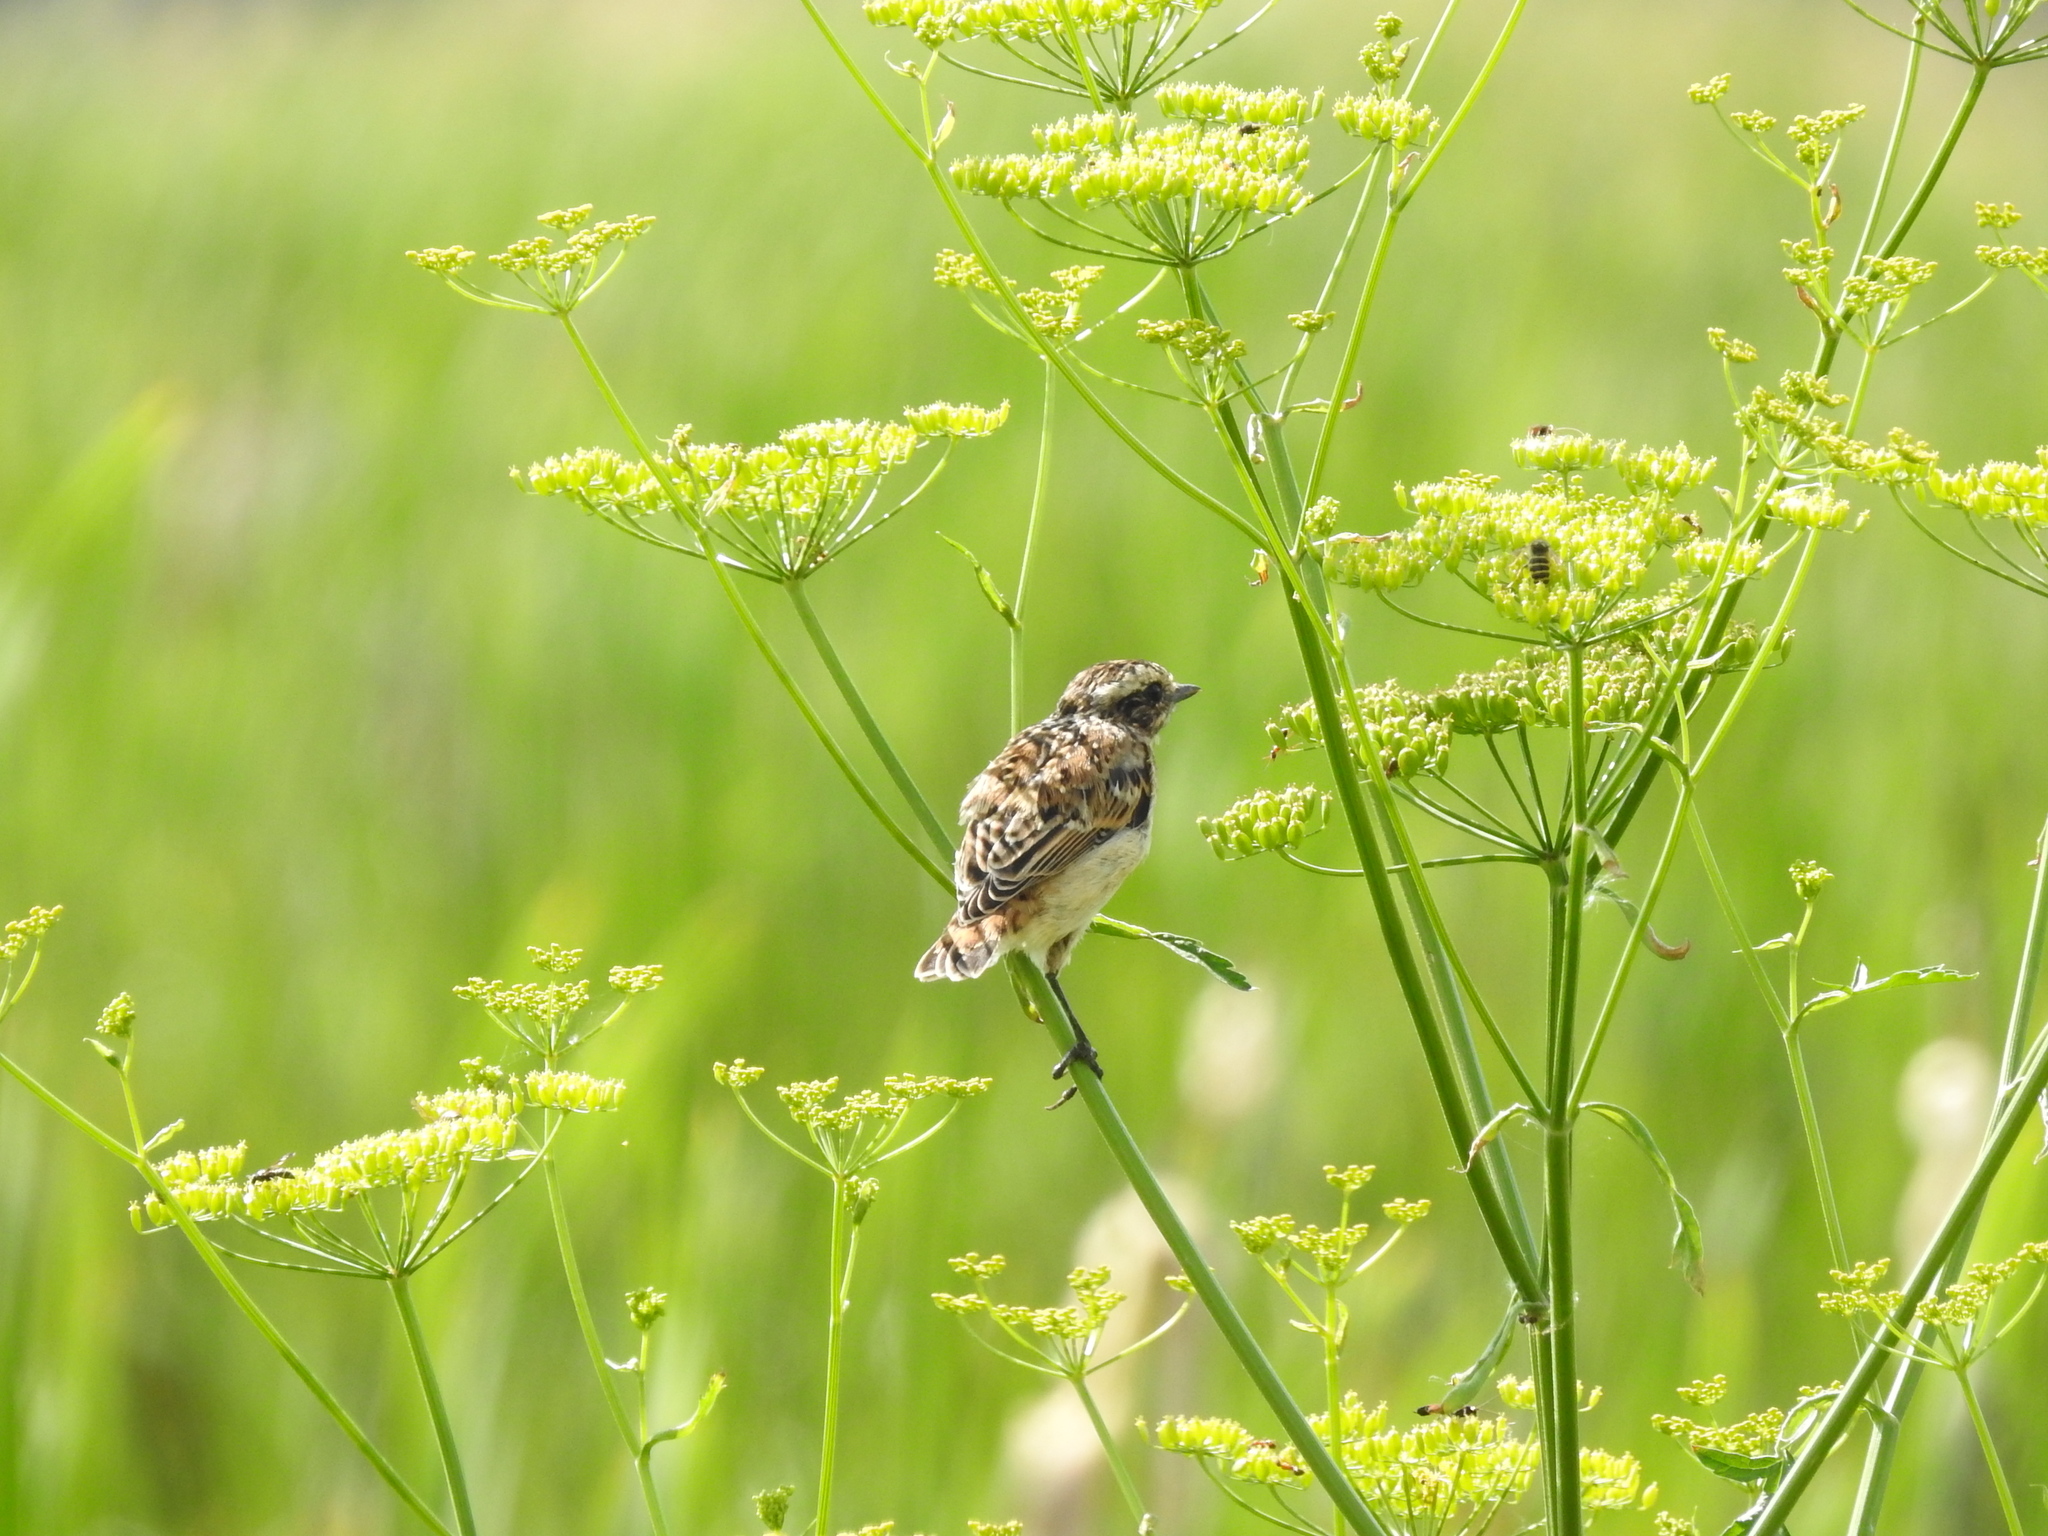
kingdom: Animalia
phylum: Chordata
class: Aves
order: Passeriformes
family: Muscicapidae
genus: Saxicola
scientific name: Saxicola rubetra
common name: Whinchat
